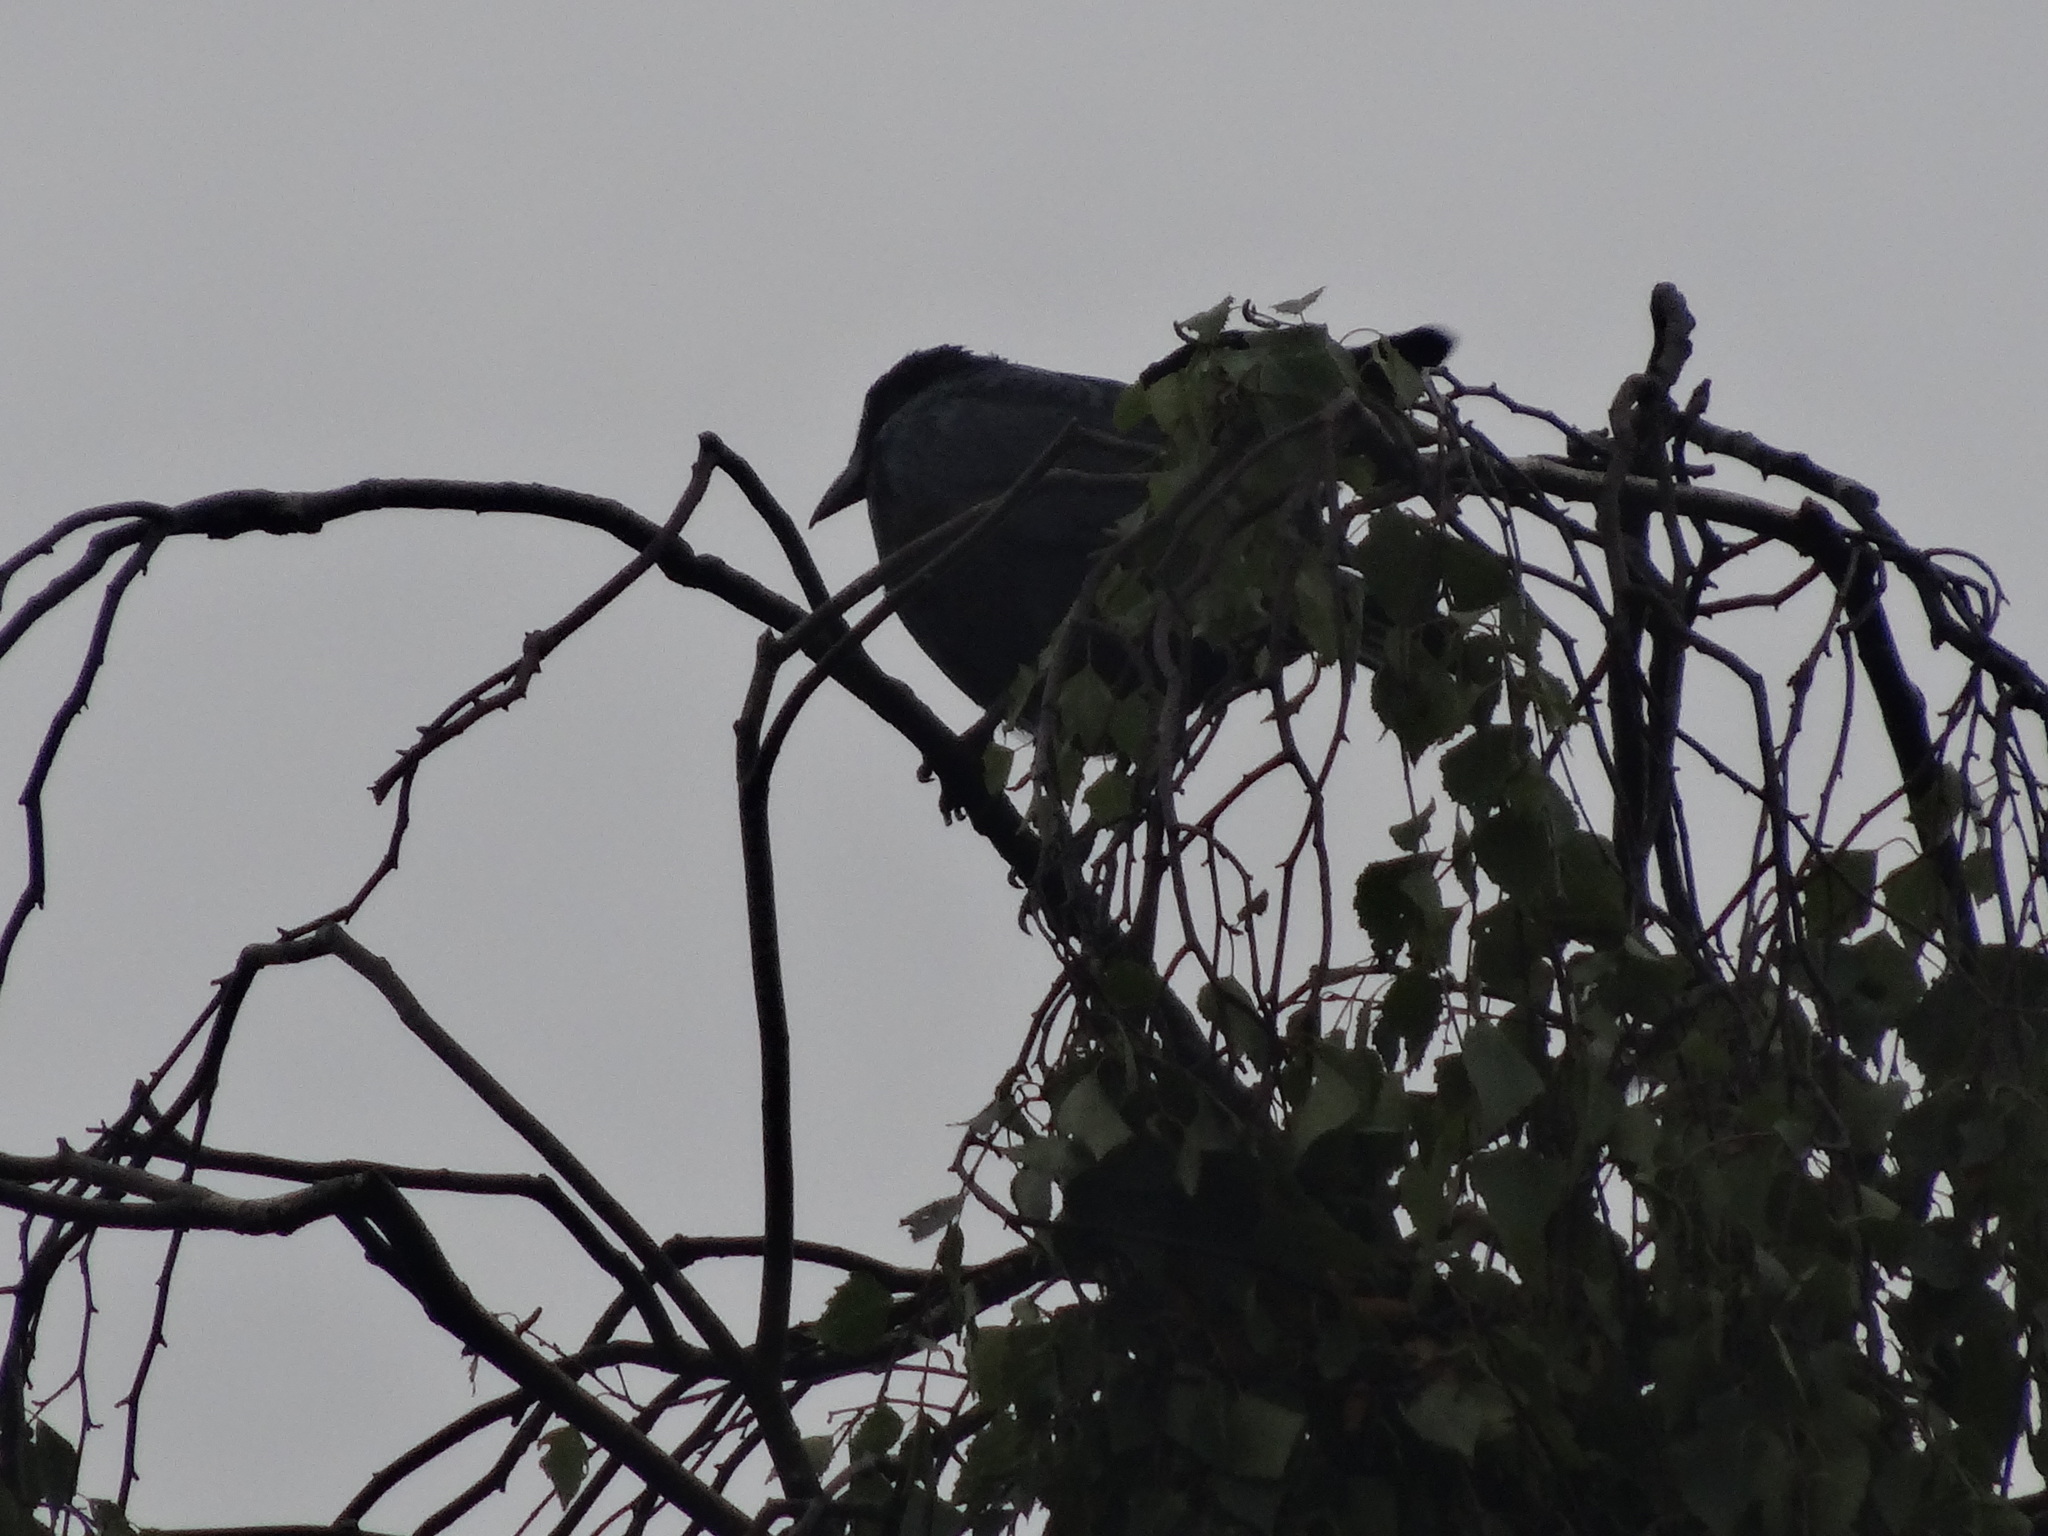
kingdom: Animalia
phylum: Chordata
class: Aves
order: Passeriformes
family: Corvidae
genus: Corvus
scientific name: Corvus corone
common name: Carrion crow
